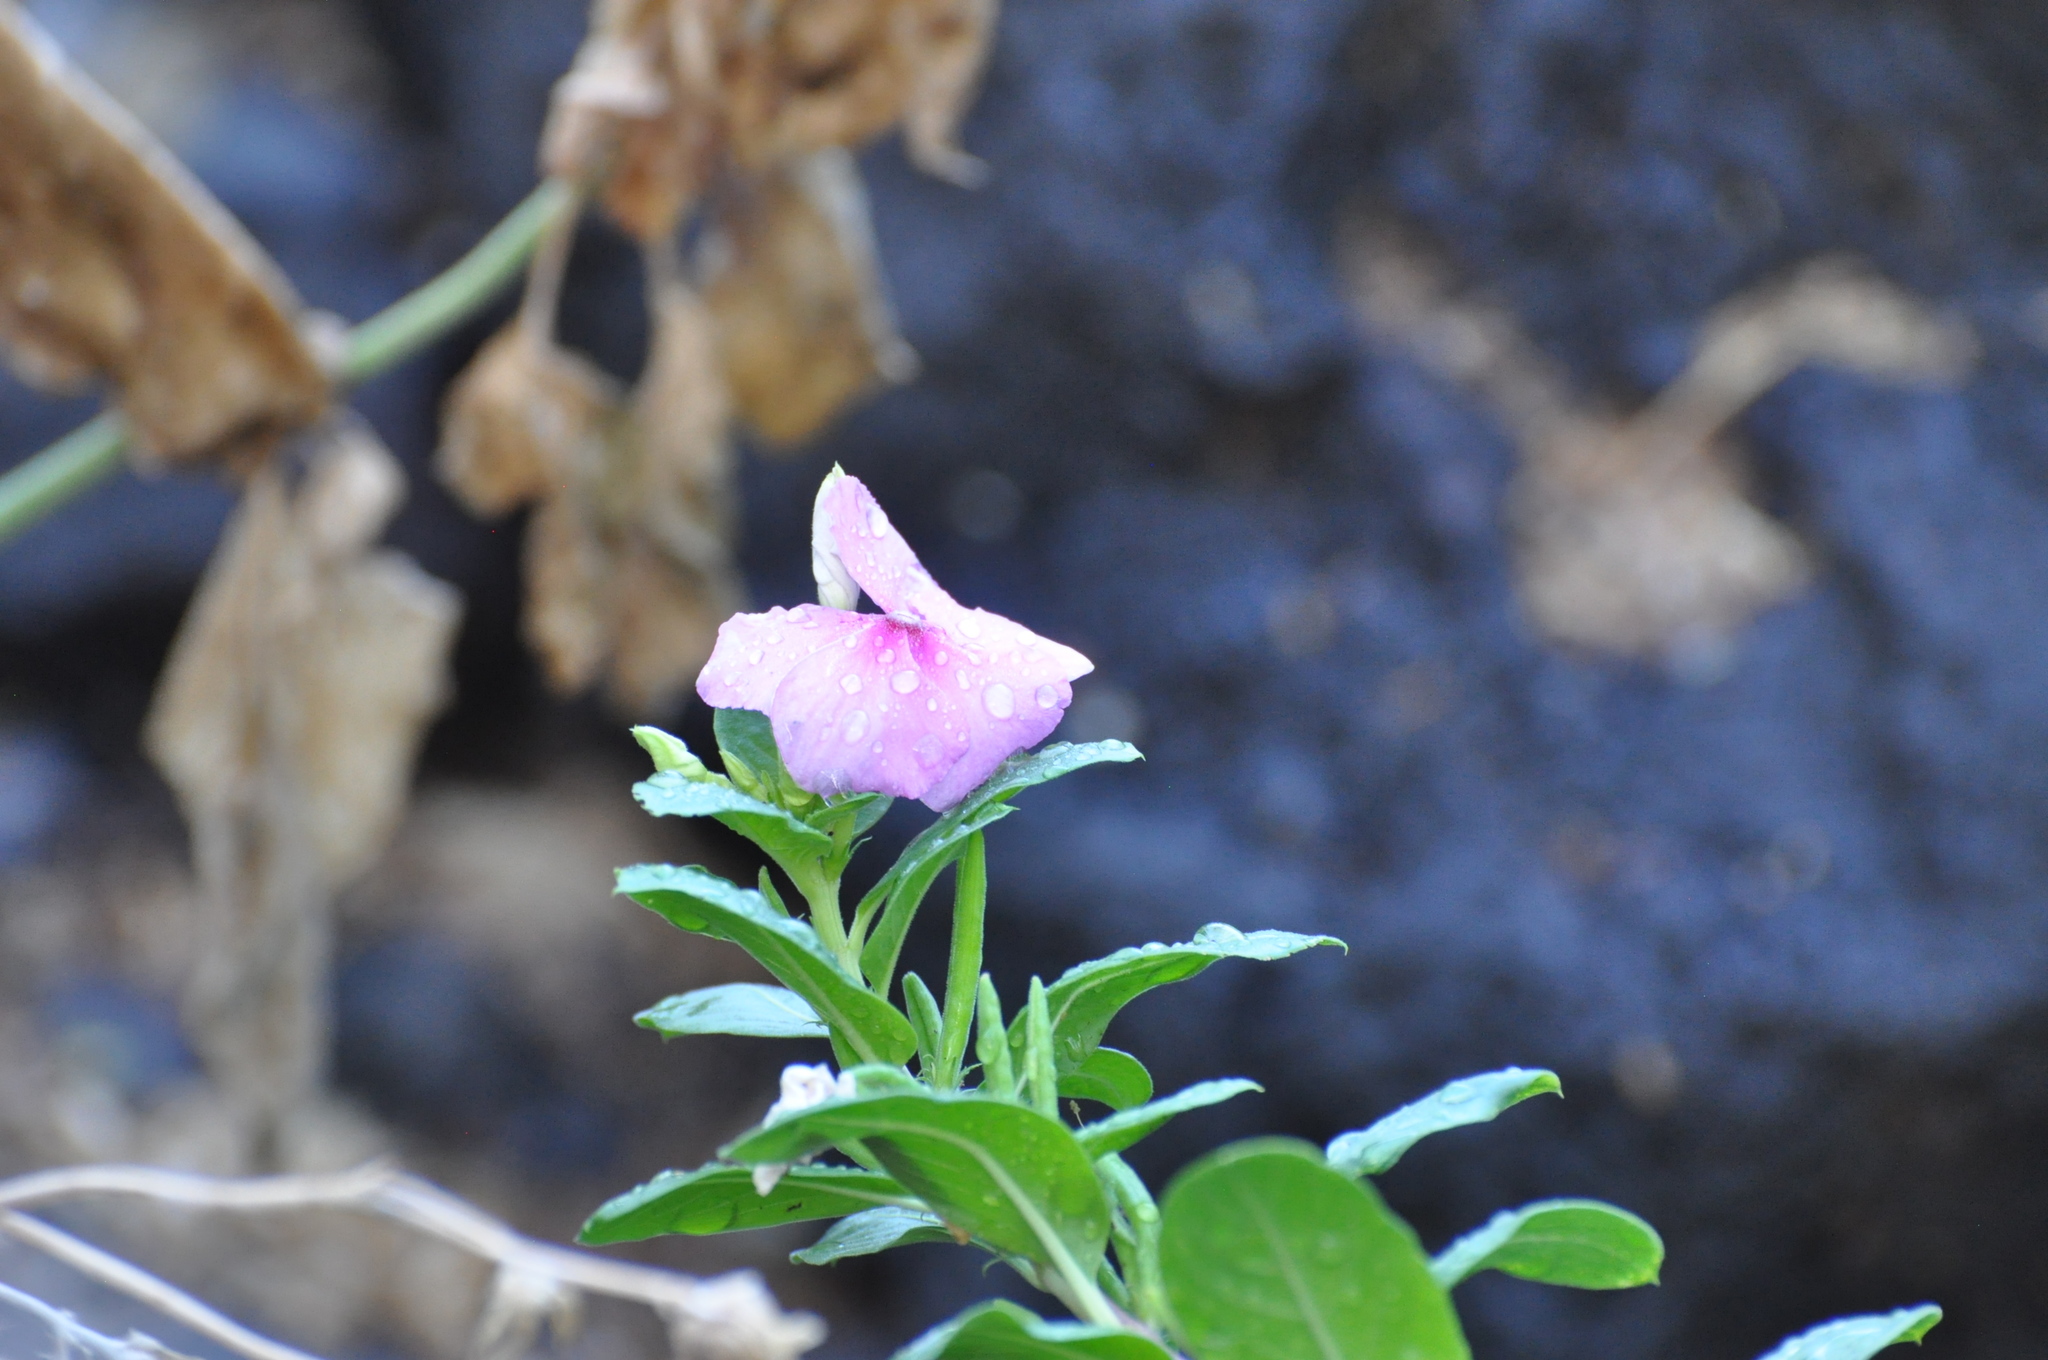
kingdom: Plantae
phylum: Tracheophyta
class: Magnoliopsida
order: Gentianales
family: Apocynaceae
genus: Catharanthus
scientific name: Catharanthus roseus
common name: Madagascar periwinkle
